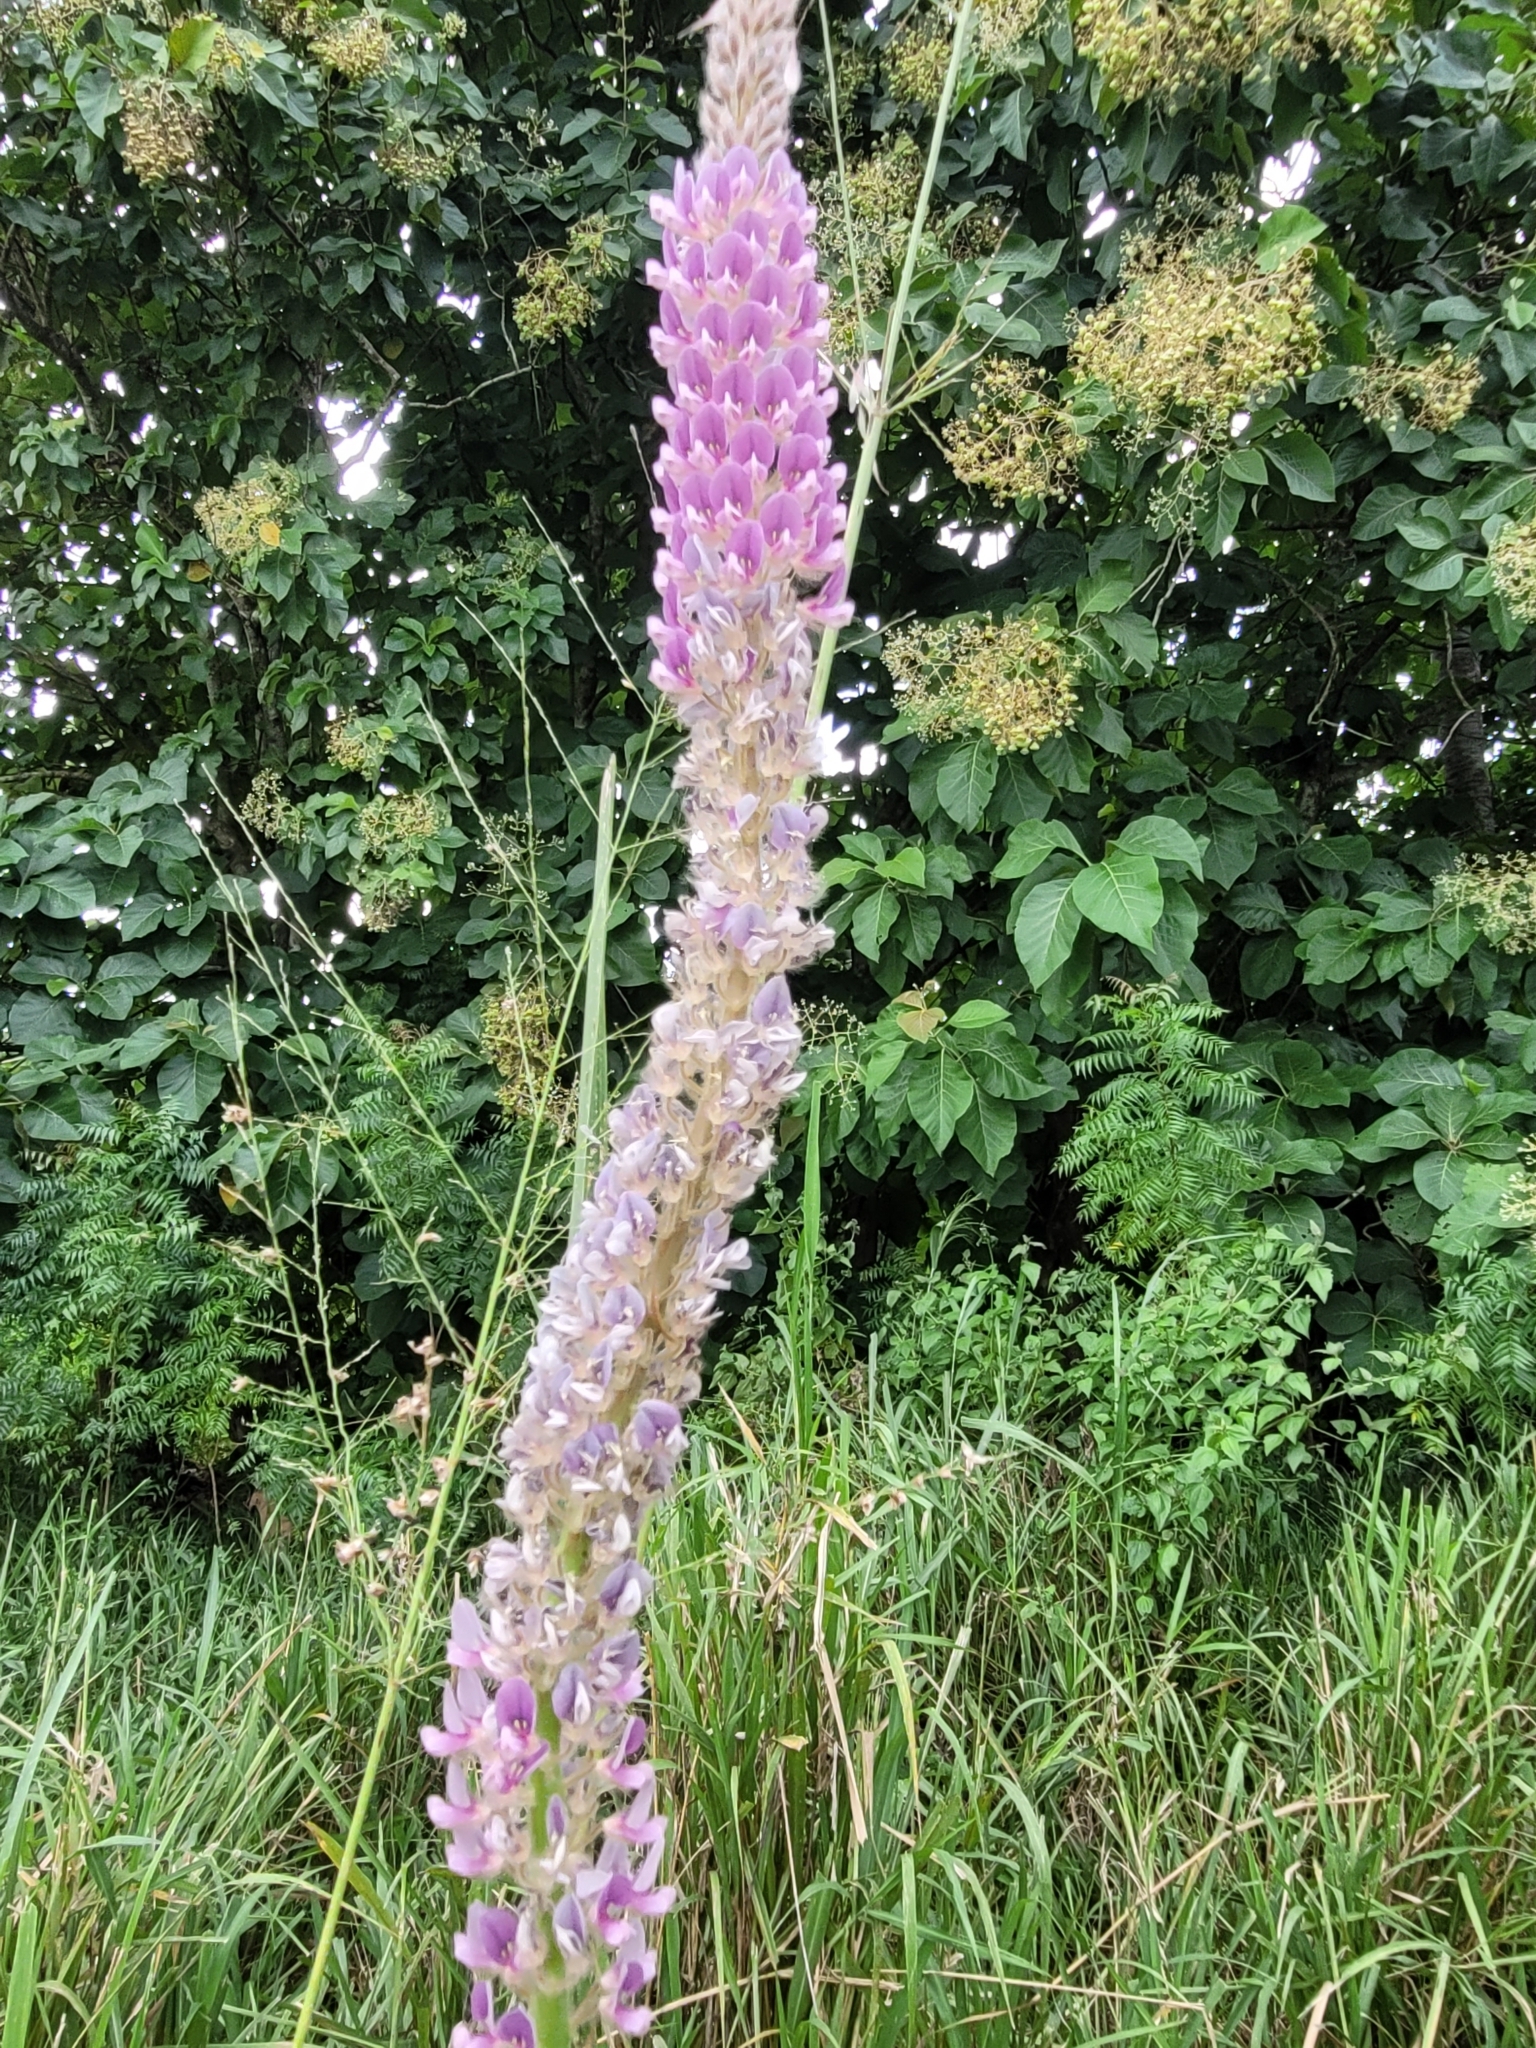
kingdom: Plantae
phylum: Tracheophyta
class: Magnoliopsida
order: Fabales
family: Fabaceae
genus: Uraria
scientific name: Uraria picta
